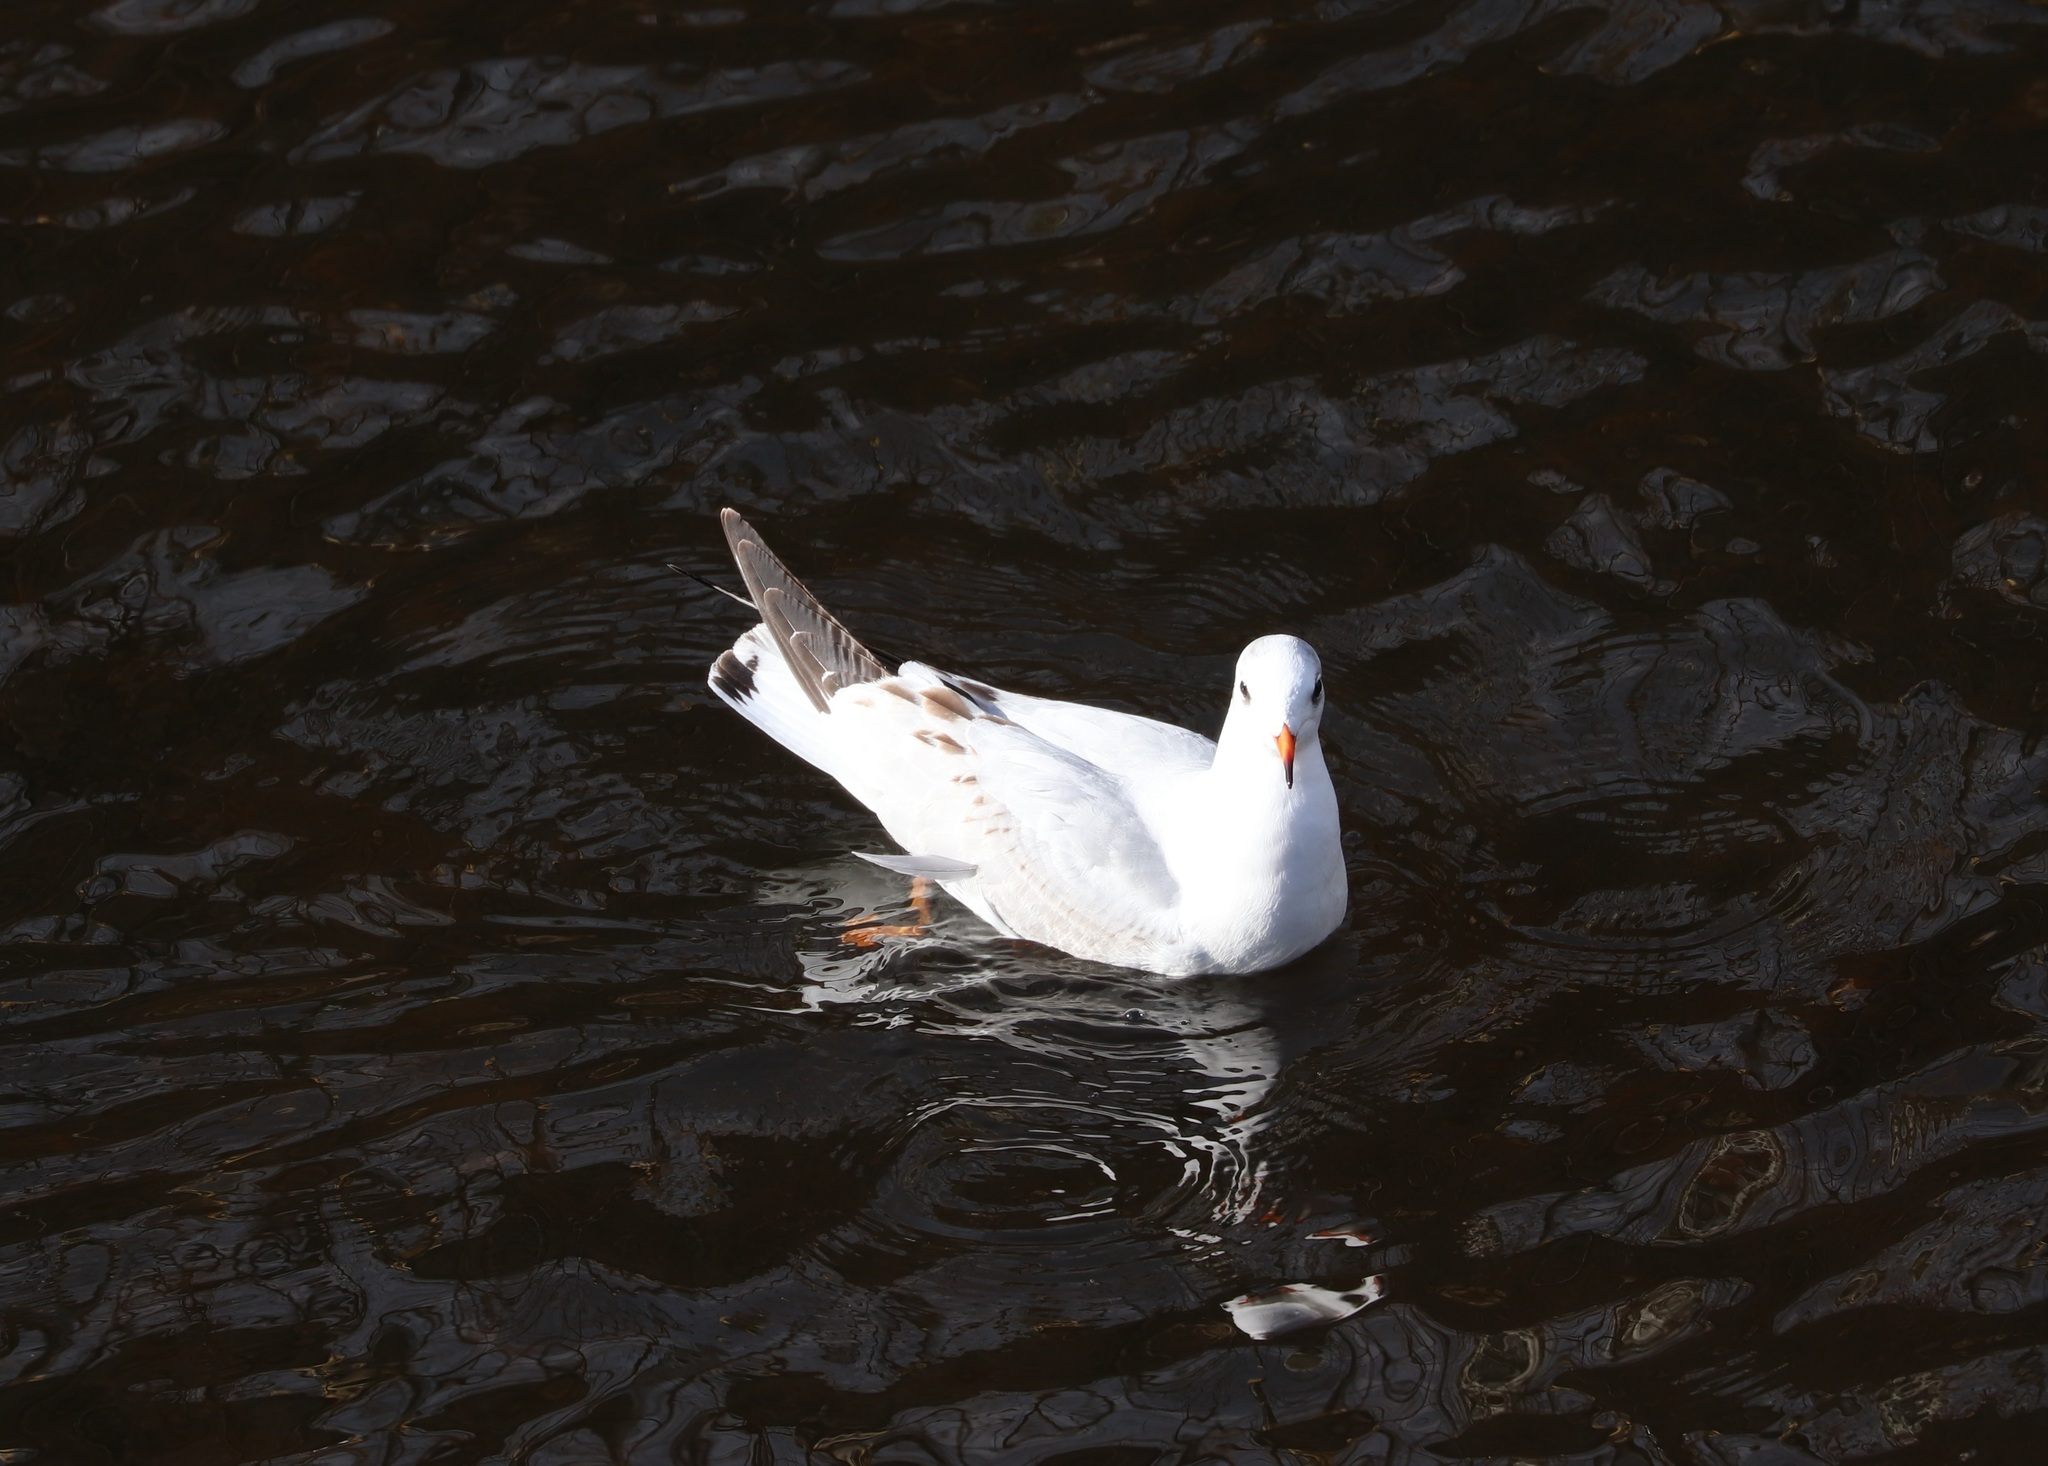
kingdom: Animalia
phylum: Chordata
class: Aves
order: Charadriiformes
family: Laridae
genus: Chroicocephalus
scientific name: Chroicocephalus ridibundus
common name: Black-headed gull
